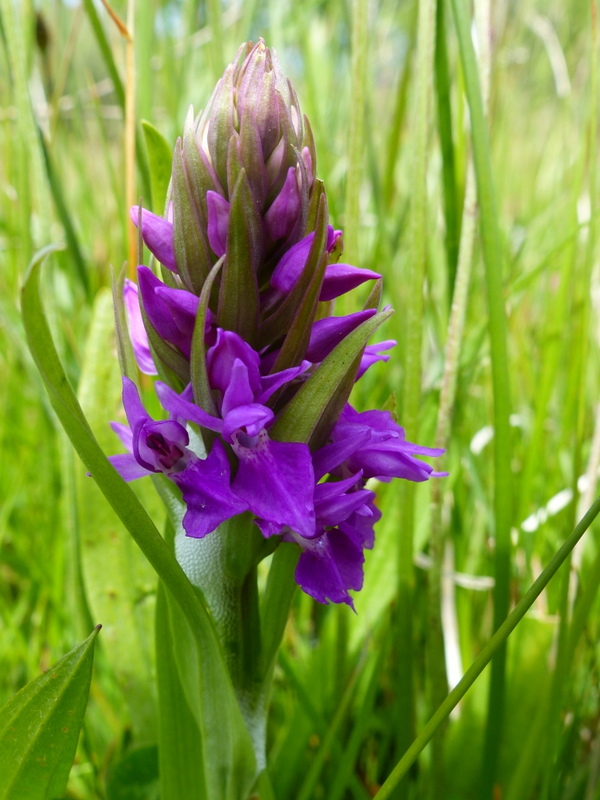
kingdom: Plantae
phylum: Tracheophyta
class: Liliopsida
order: Asparagales
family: Orchidaceae
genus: Dactylorhiza
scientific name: Dactylorhiza majalis
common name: Marsh orchid
